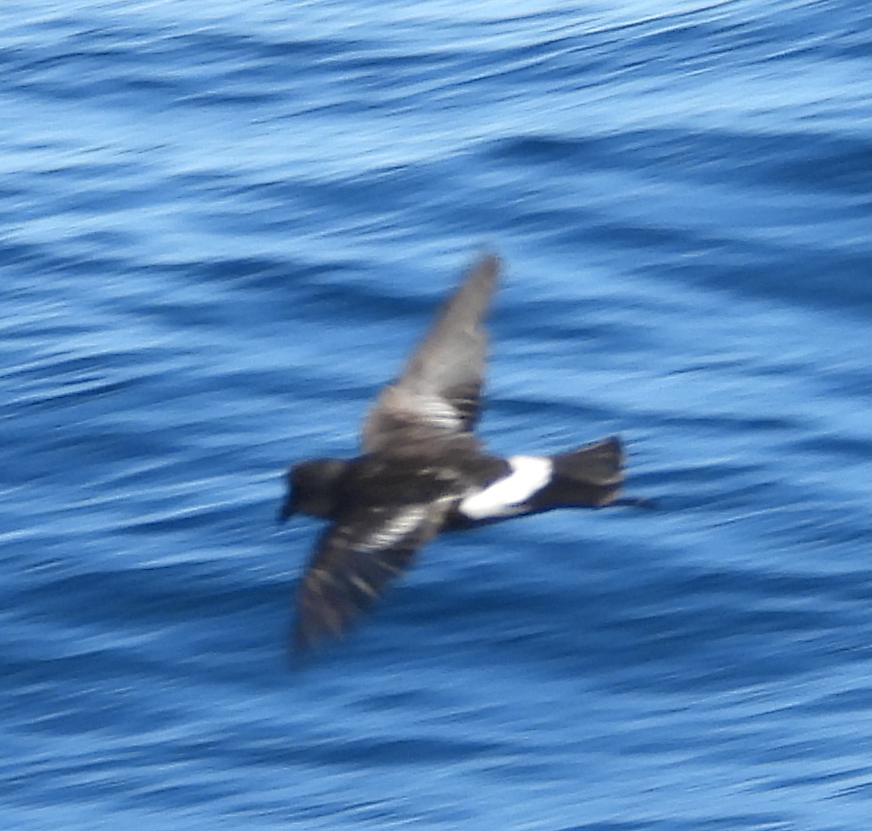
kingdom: Animalia
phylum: Chordata
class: Aves
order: Procellariiformes
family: Hydrobatidae
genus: Oceanites
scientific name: Oceanites oceanicus
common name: Wilson's storm petrel
